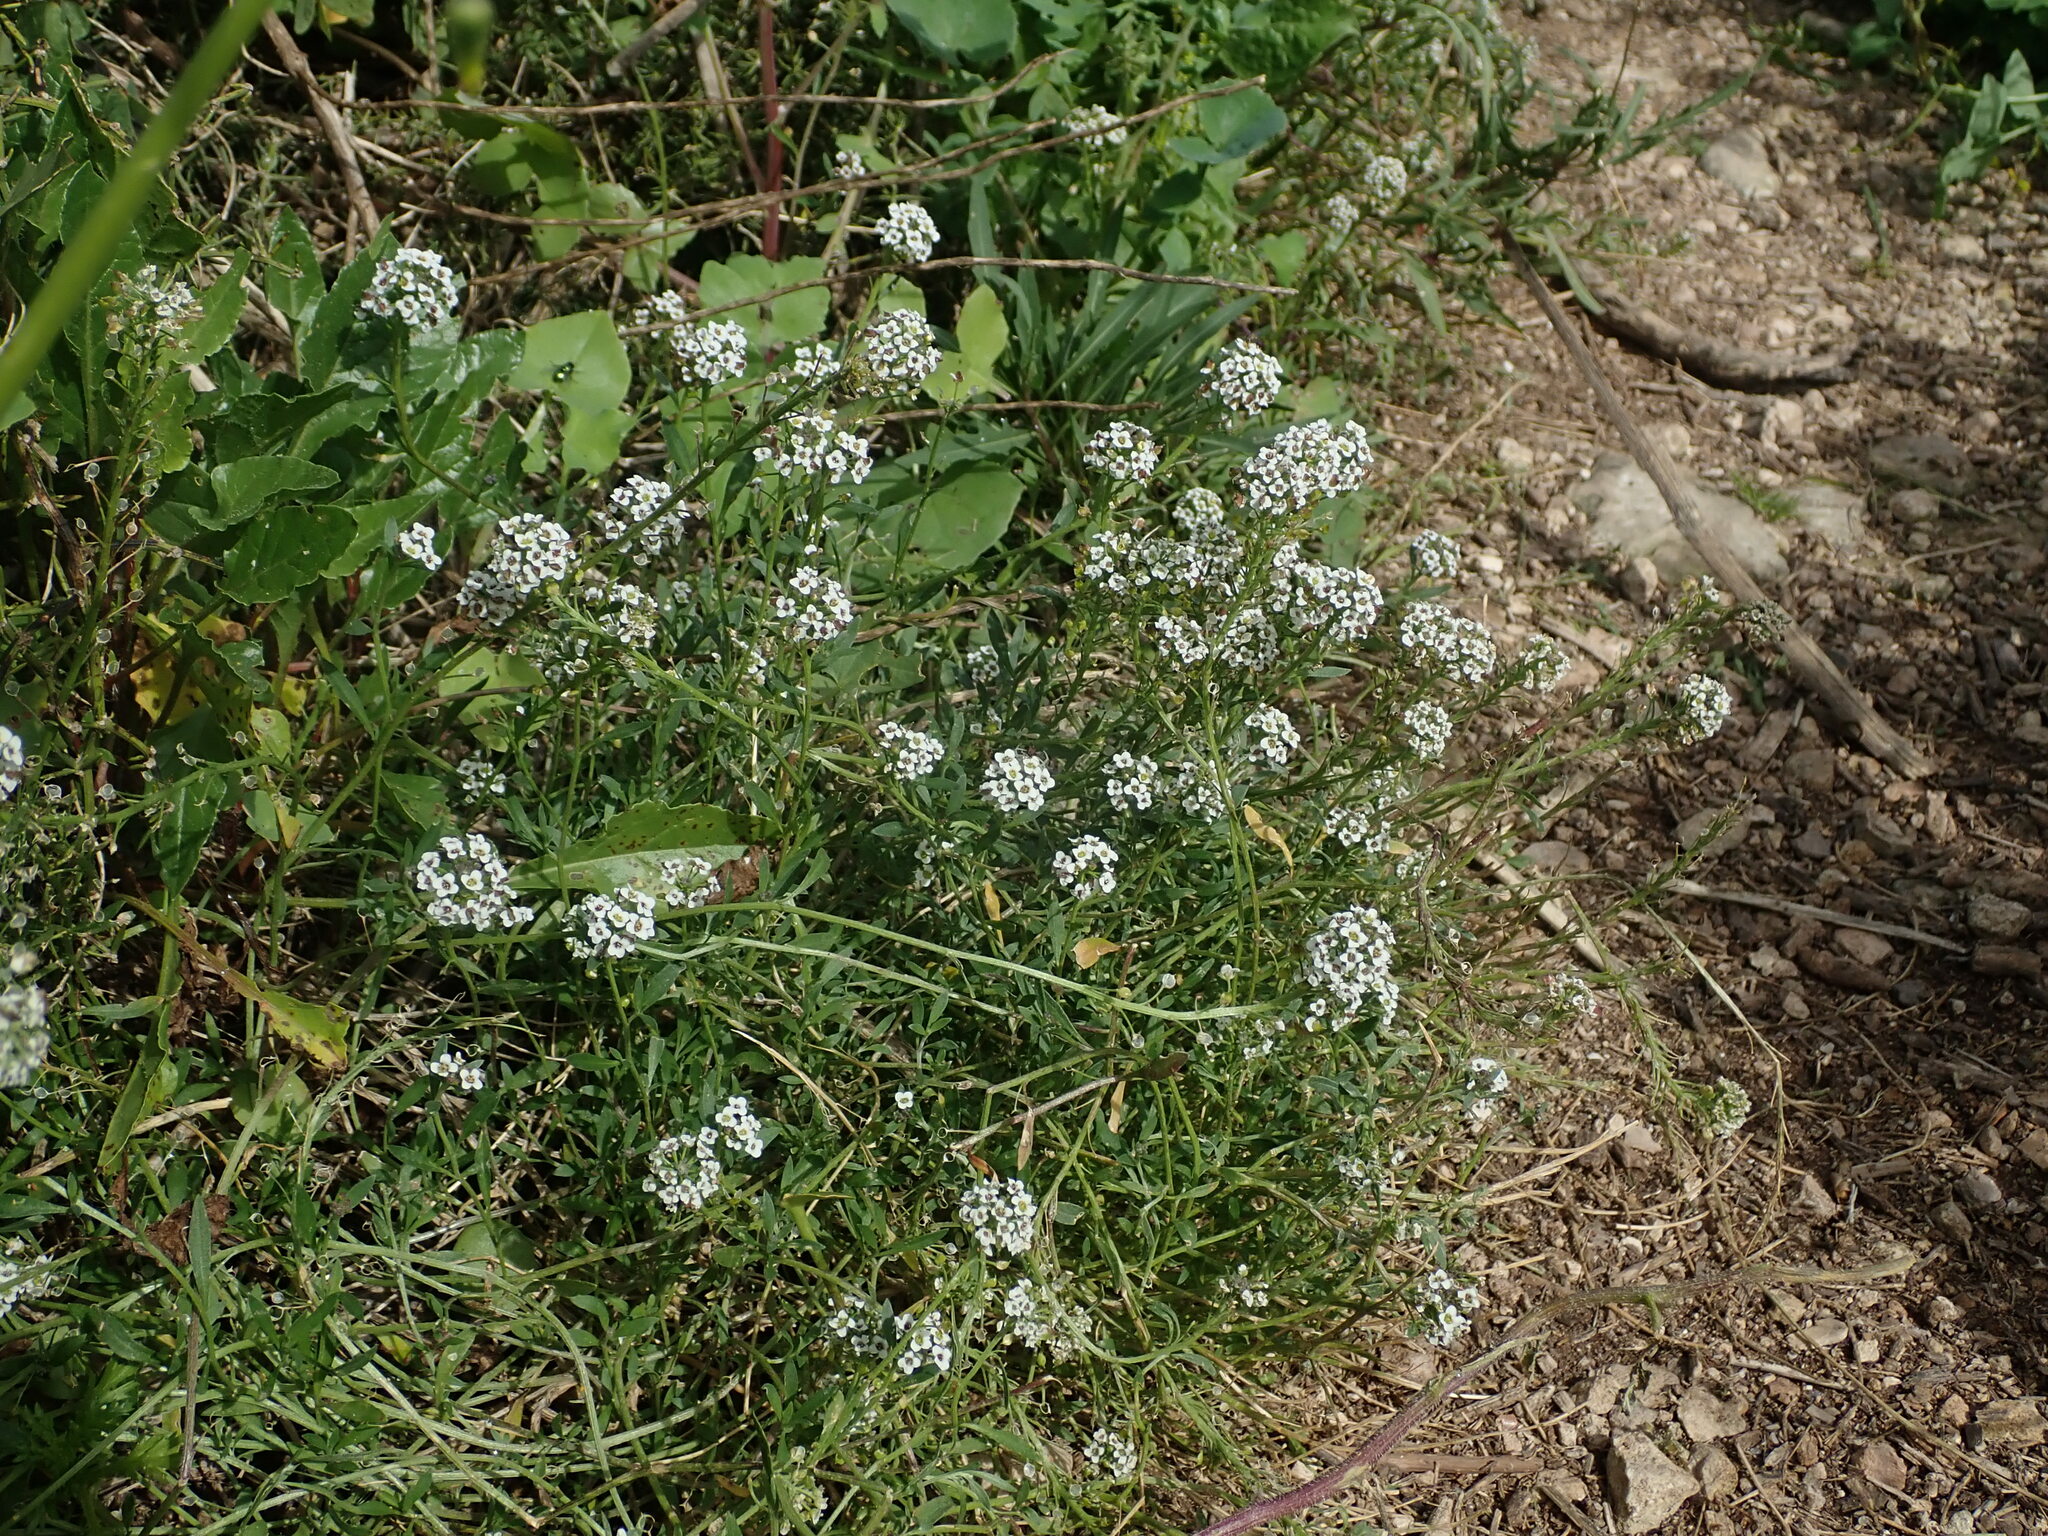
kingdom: Plantae
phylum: Tracheophyta
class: Magnoliopsida
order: Brassicales
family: Brassicaceae
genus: Lobularia
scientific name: Lobularia maritima
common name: Sweet alison
